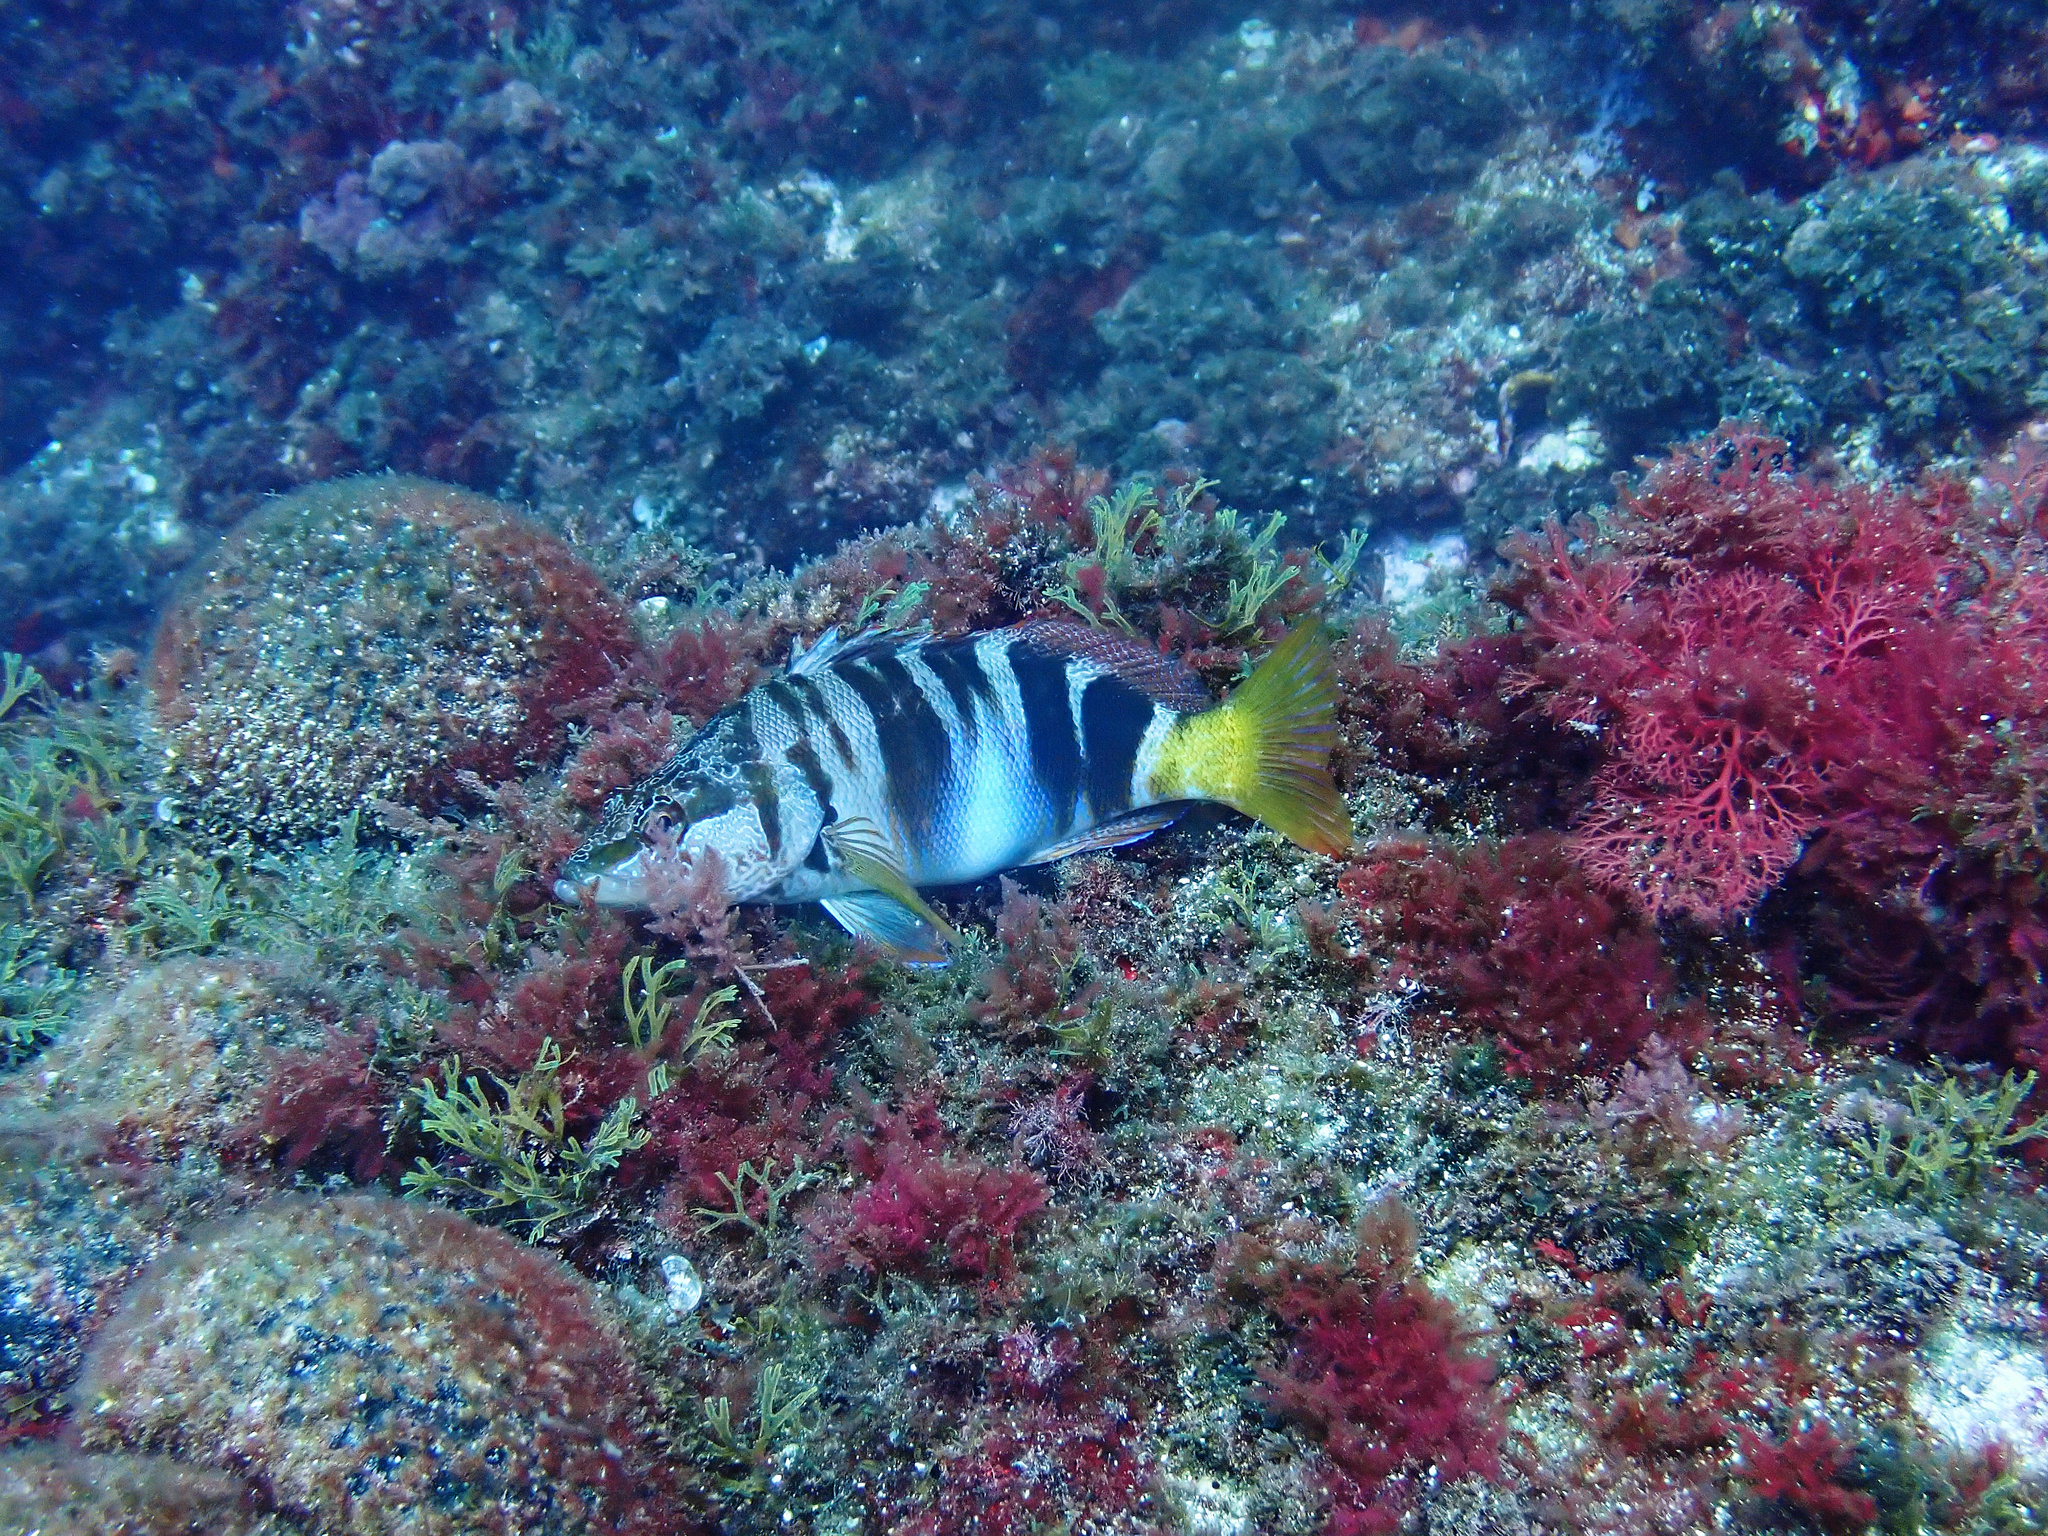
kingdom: Animalia
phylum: Chordata
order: Perciformes
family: Serranidae
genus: Serranus
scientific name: Serranus scriba
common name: Painted comber
